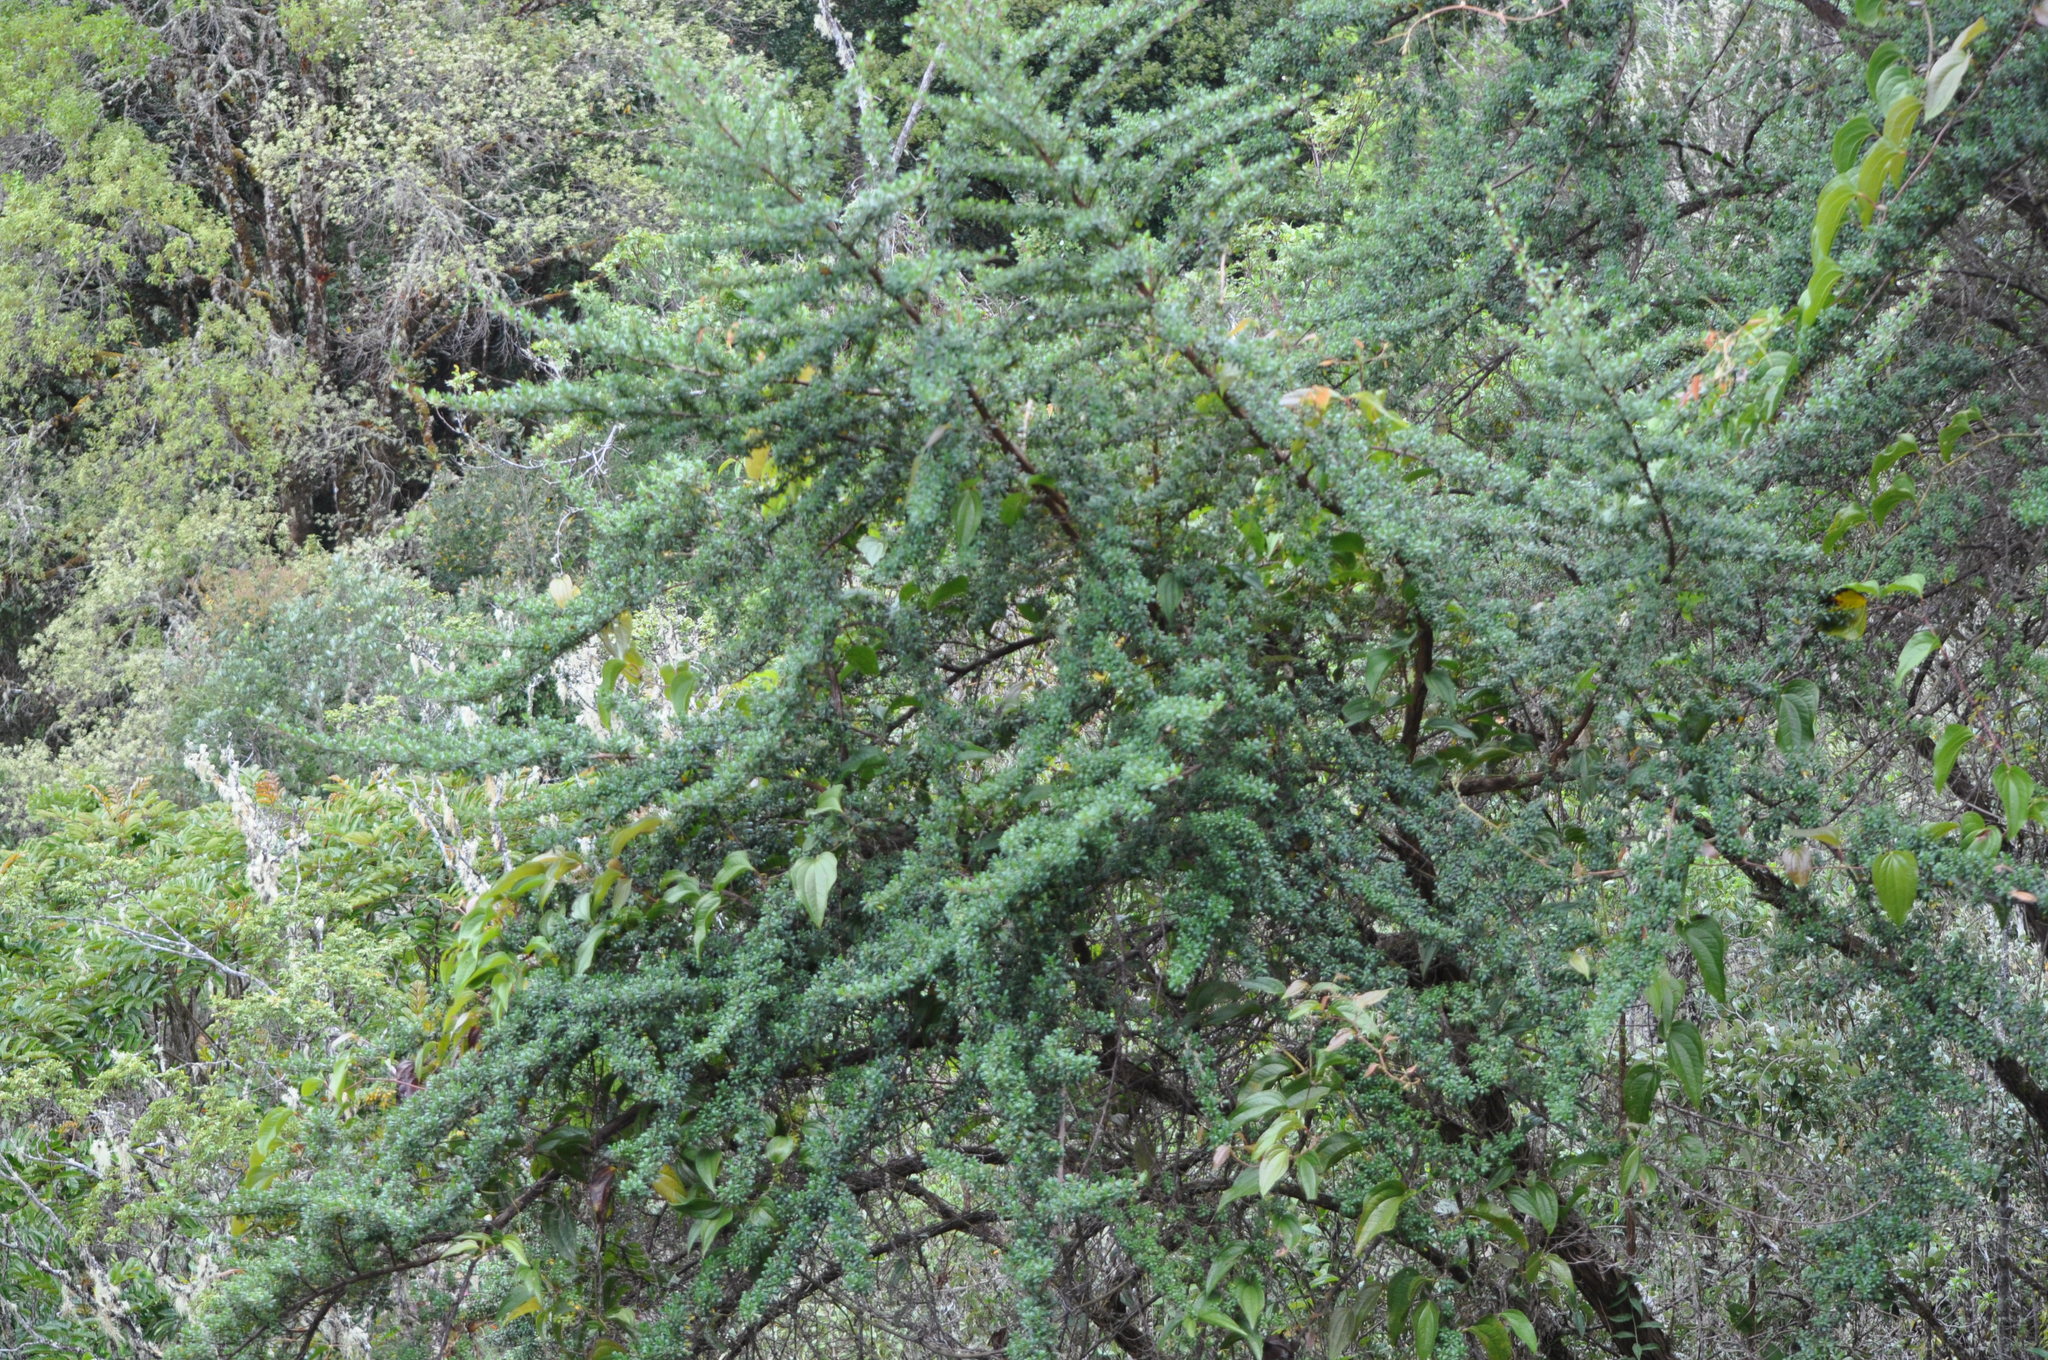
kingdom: Plantae
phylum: Tracheophyta
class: Magnoliopsida
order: Escalloniales
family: Escalloniaceae
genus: Escallonia
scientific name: Escallonia myrtilloides
